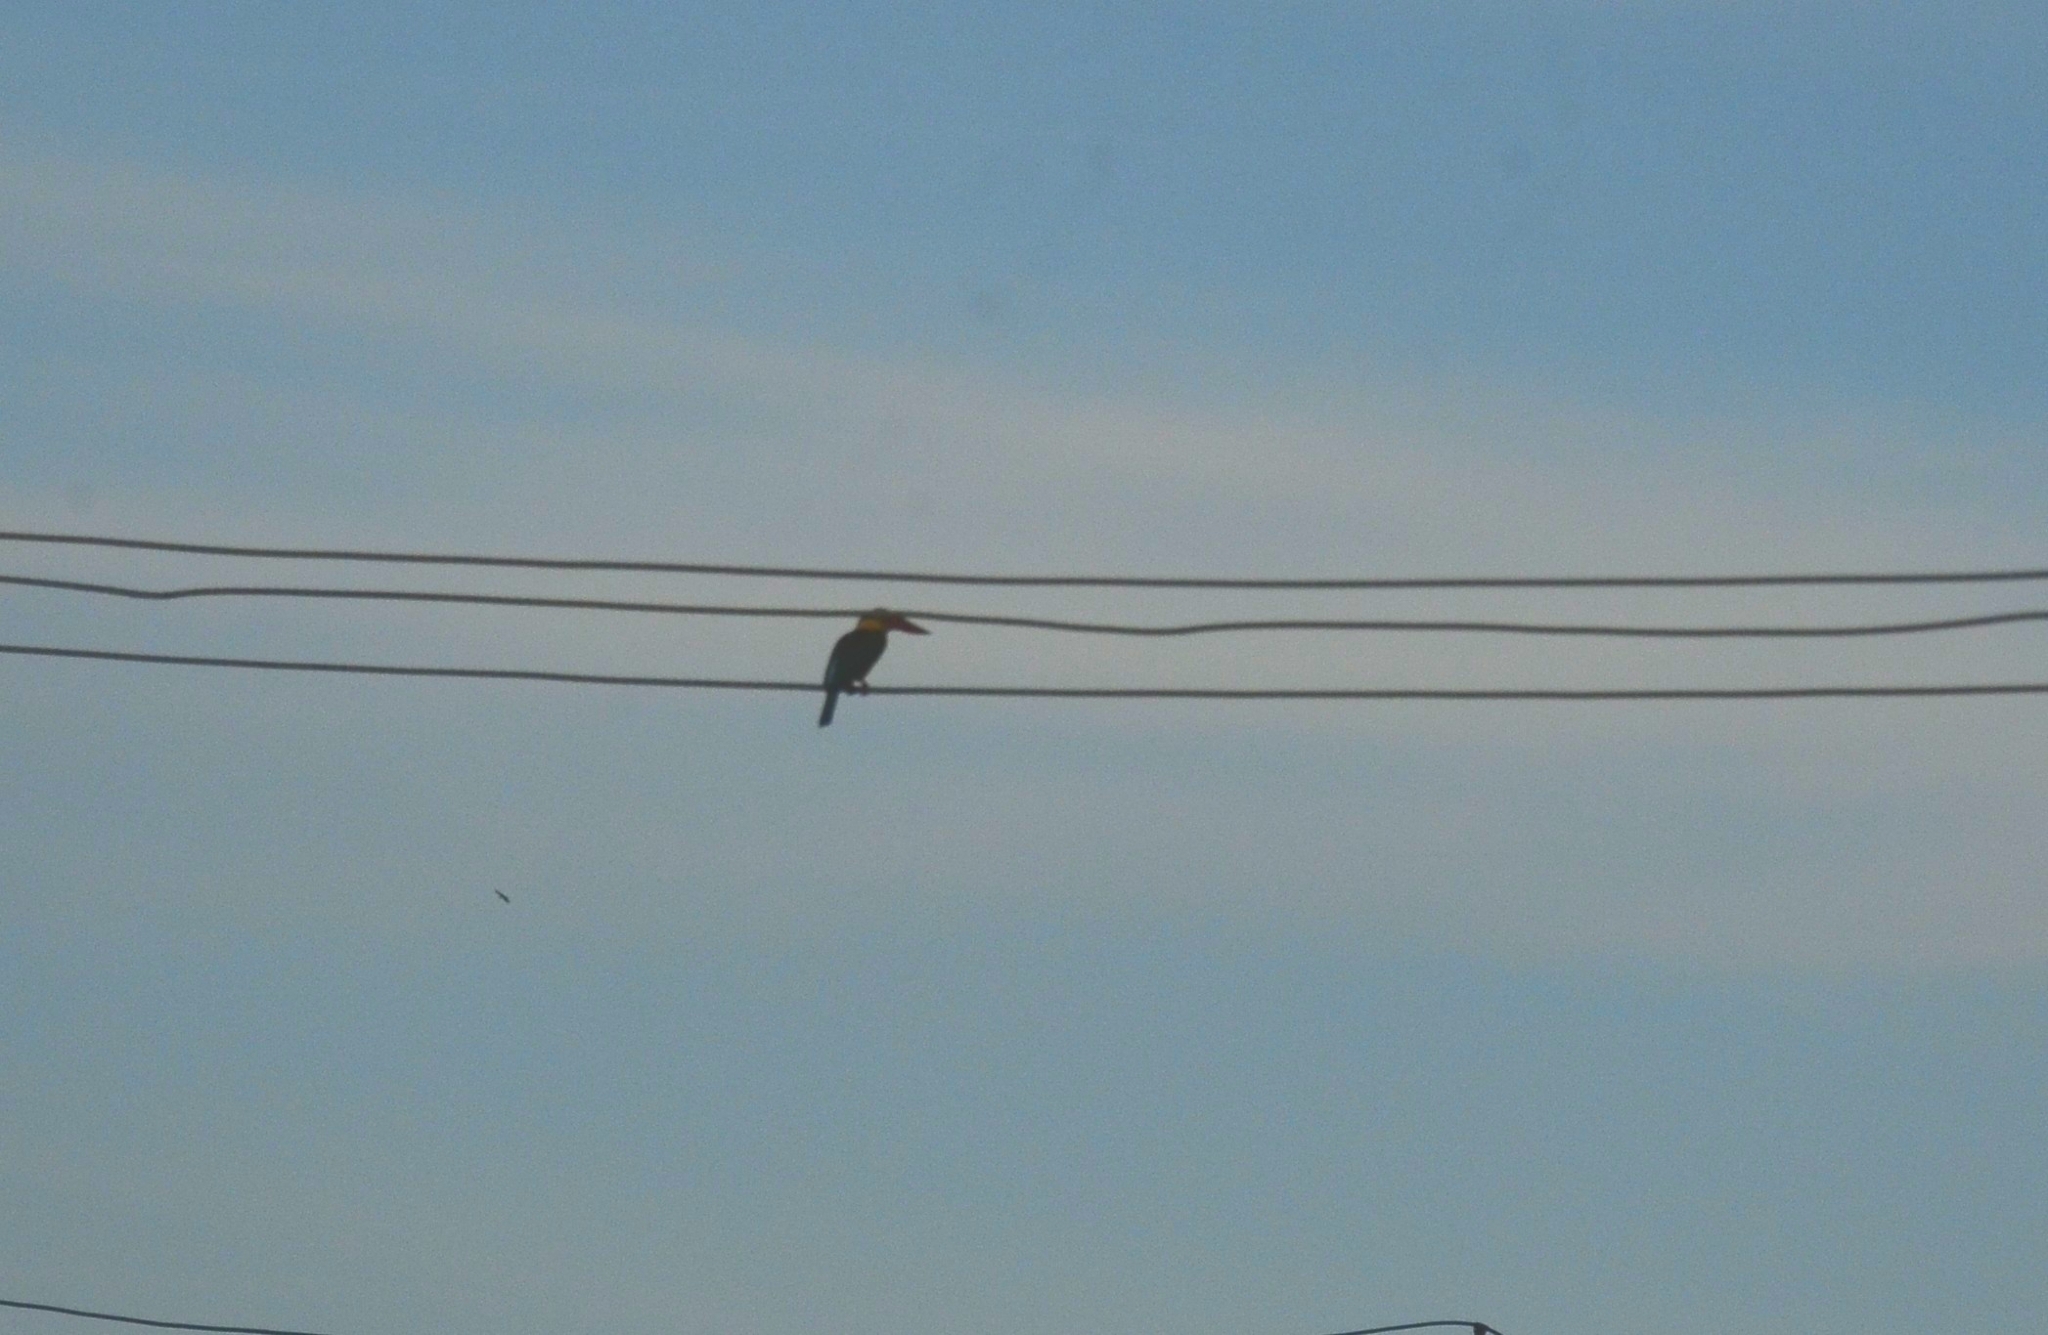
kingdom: Animalia
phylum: Chordata
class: Aves
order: Coraciiformes
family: Alcedinidae
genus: Pelargopsis
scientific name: Pelargopsis capensis
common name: Stork-billed kingfisher
